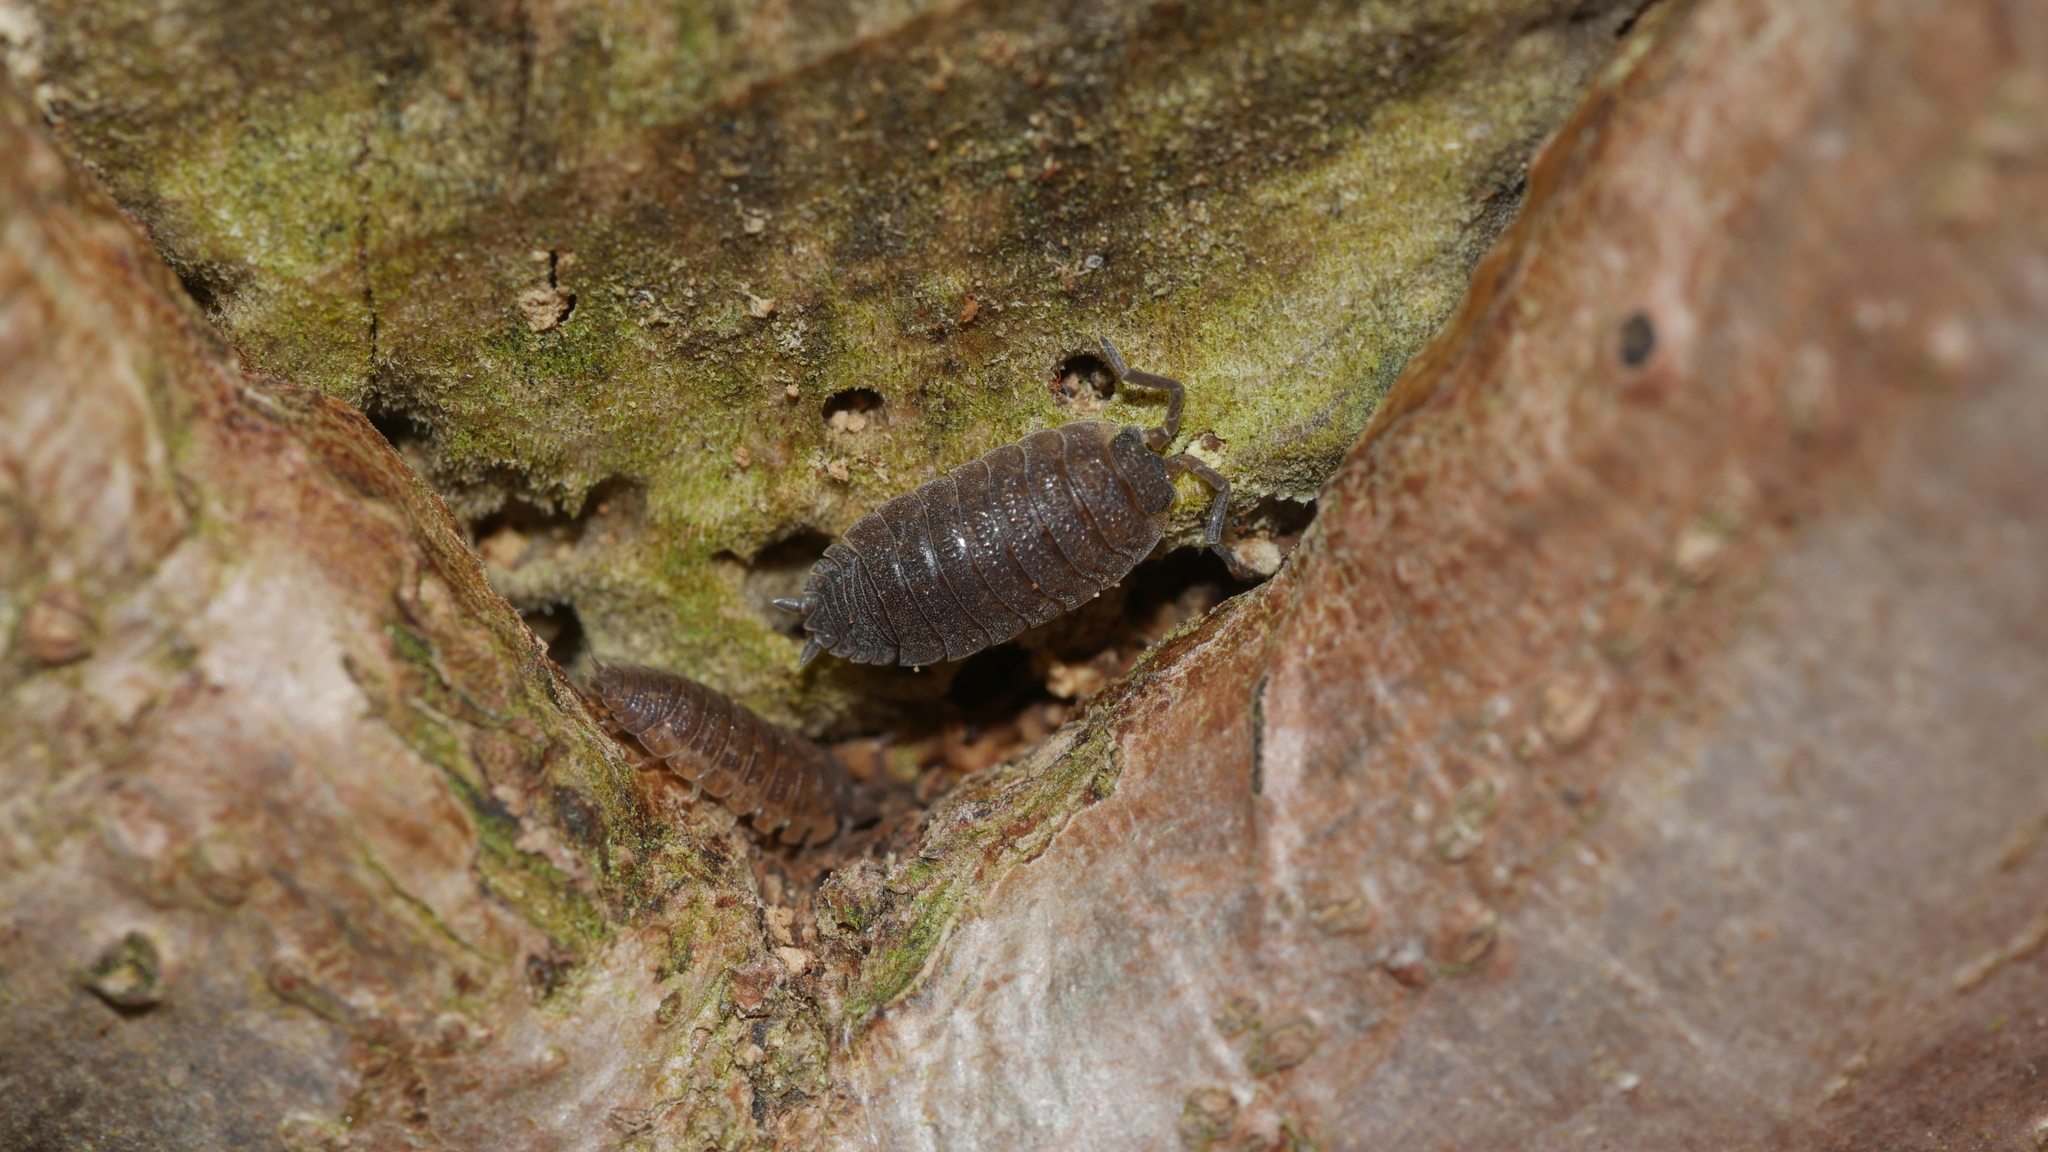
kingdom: Animalia
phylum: Arthropoda
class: Malacostraca
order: Isopoda
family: Porcellionidae
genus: Porcellio
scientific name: Porcellio scaber
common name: Common rough woodlouse
